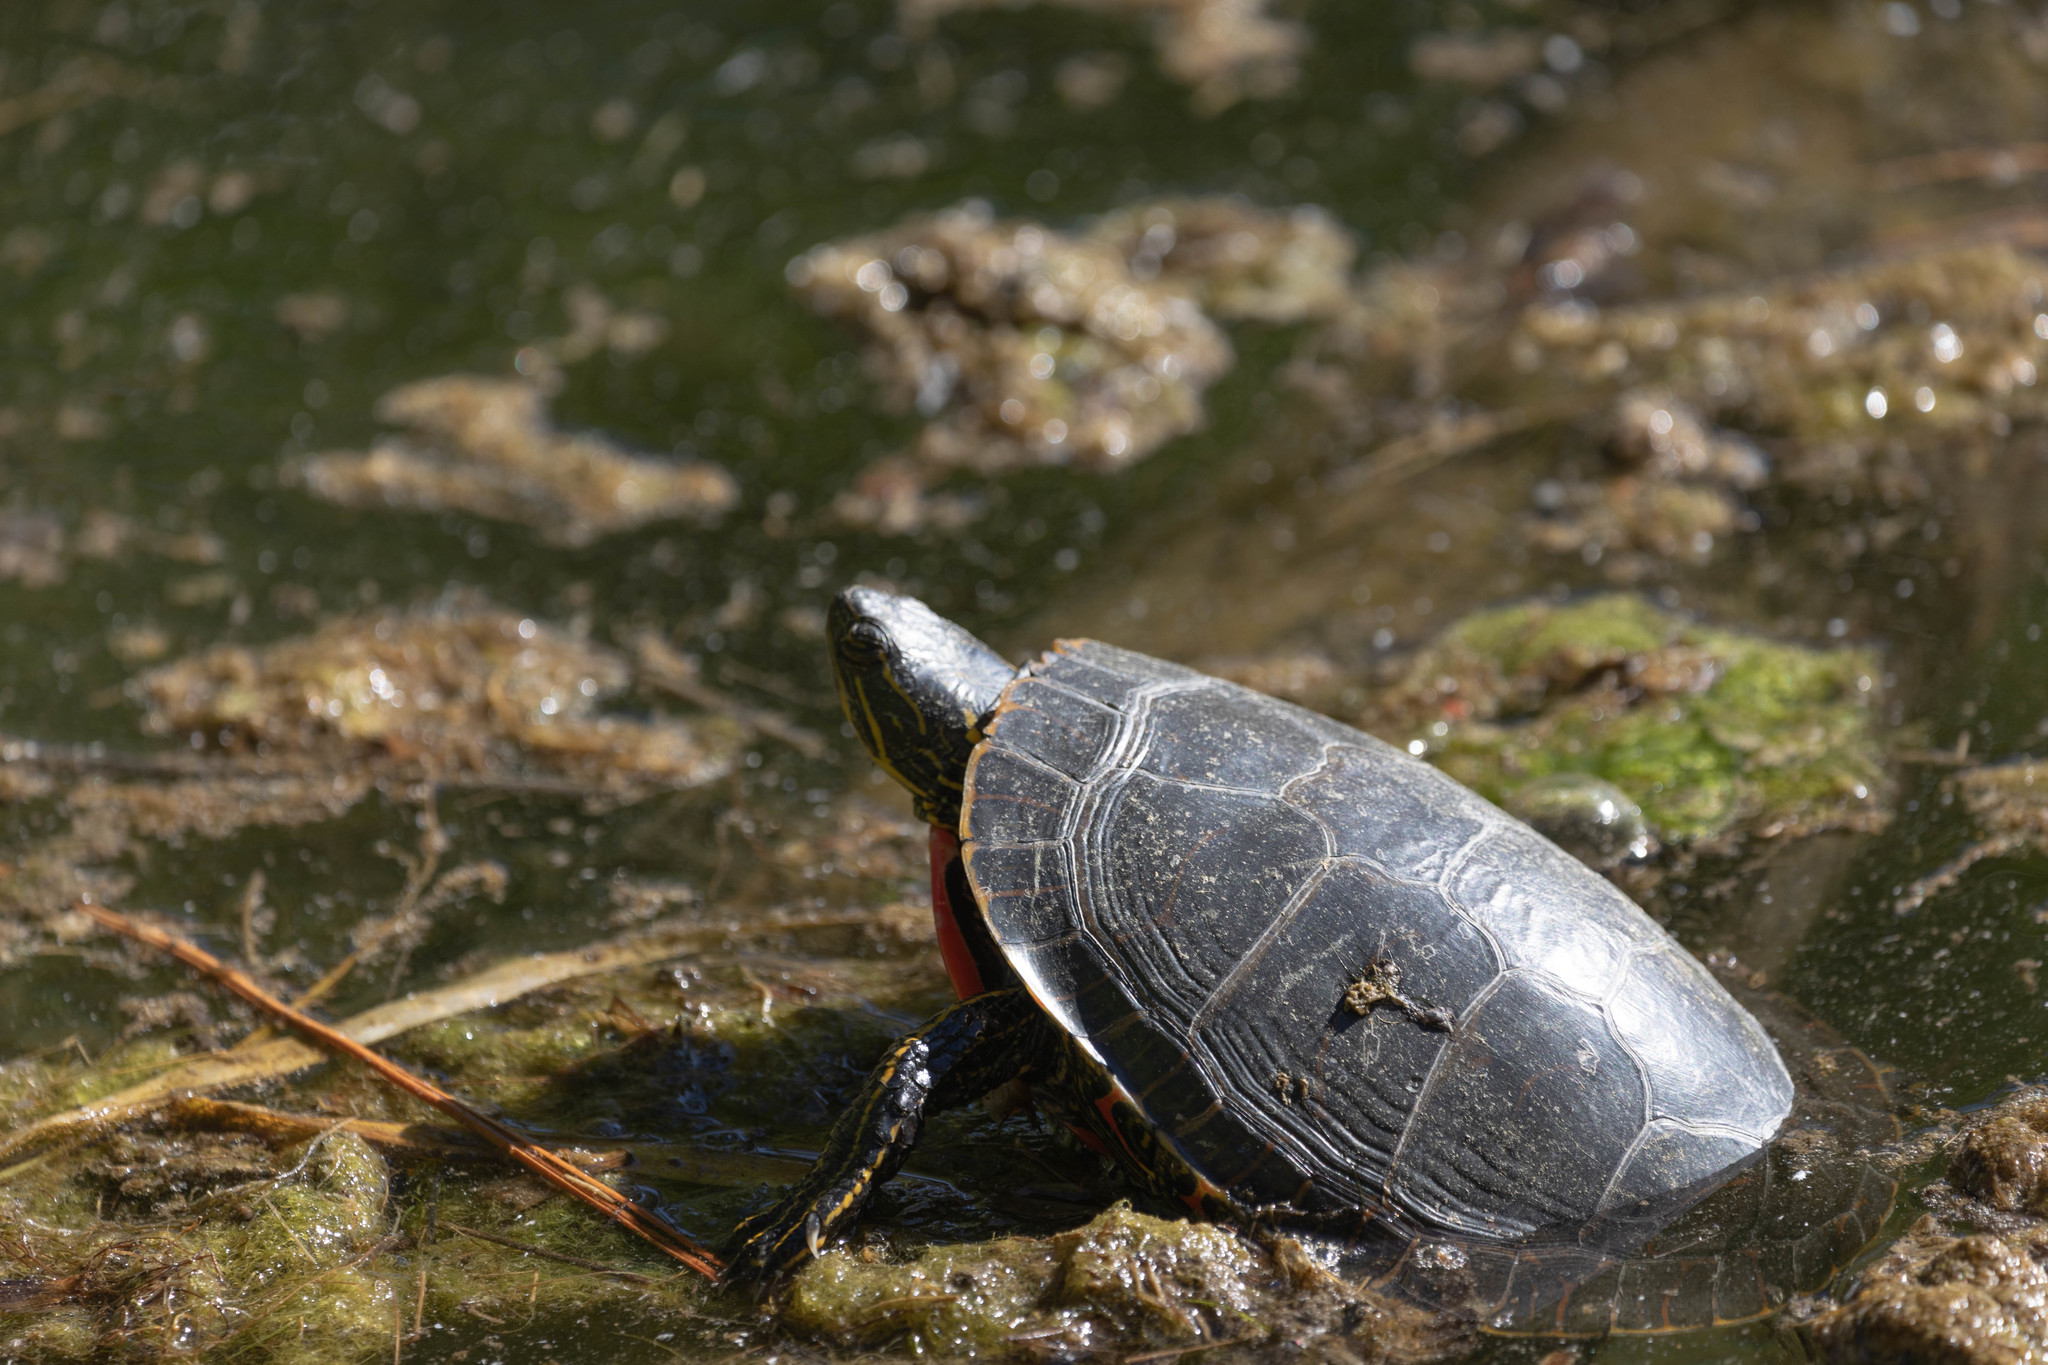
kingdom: Animalia
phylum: Chordata
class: Testudines
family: Emydidae
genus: Chrysemys
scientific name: Chrysemys picta
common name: Painted turtle
